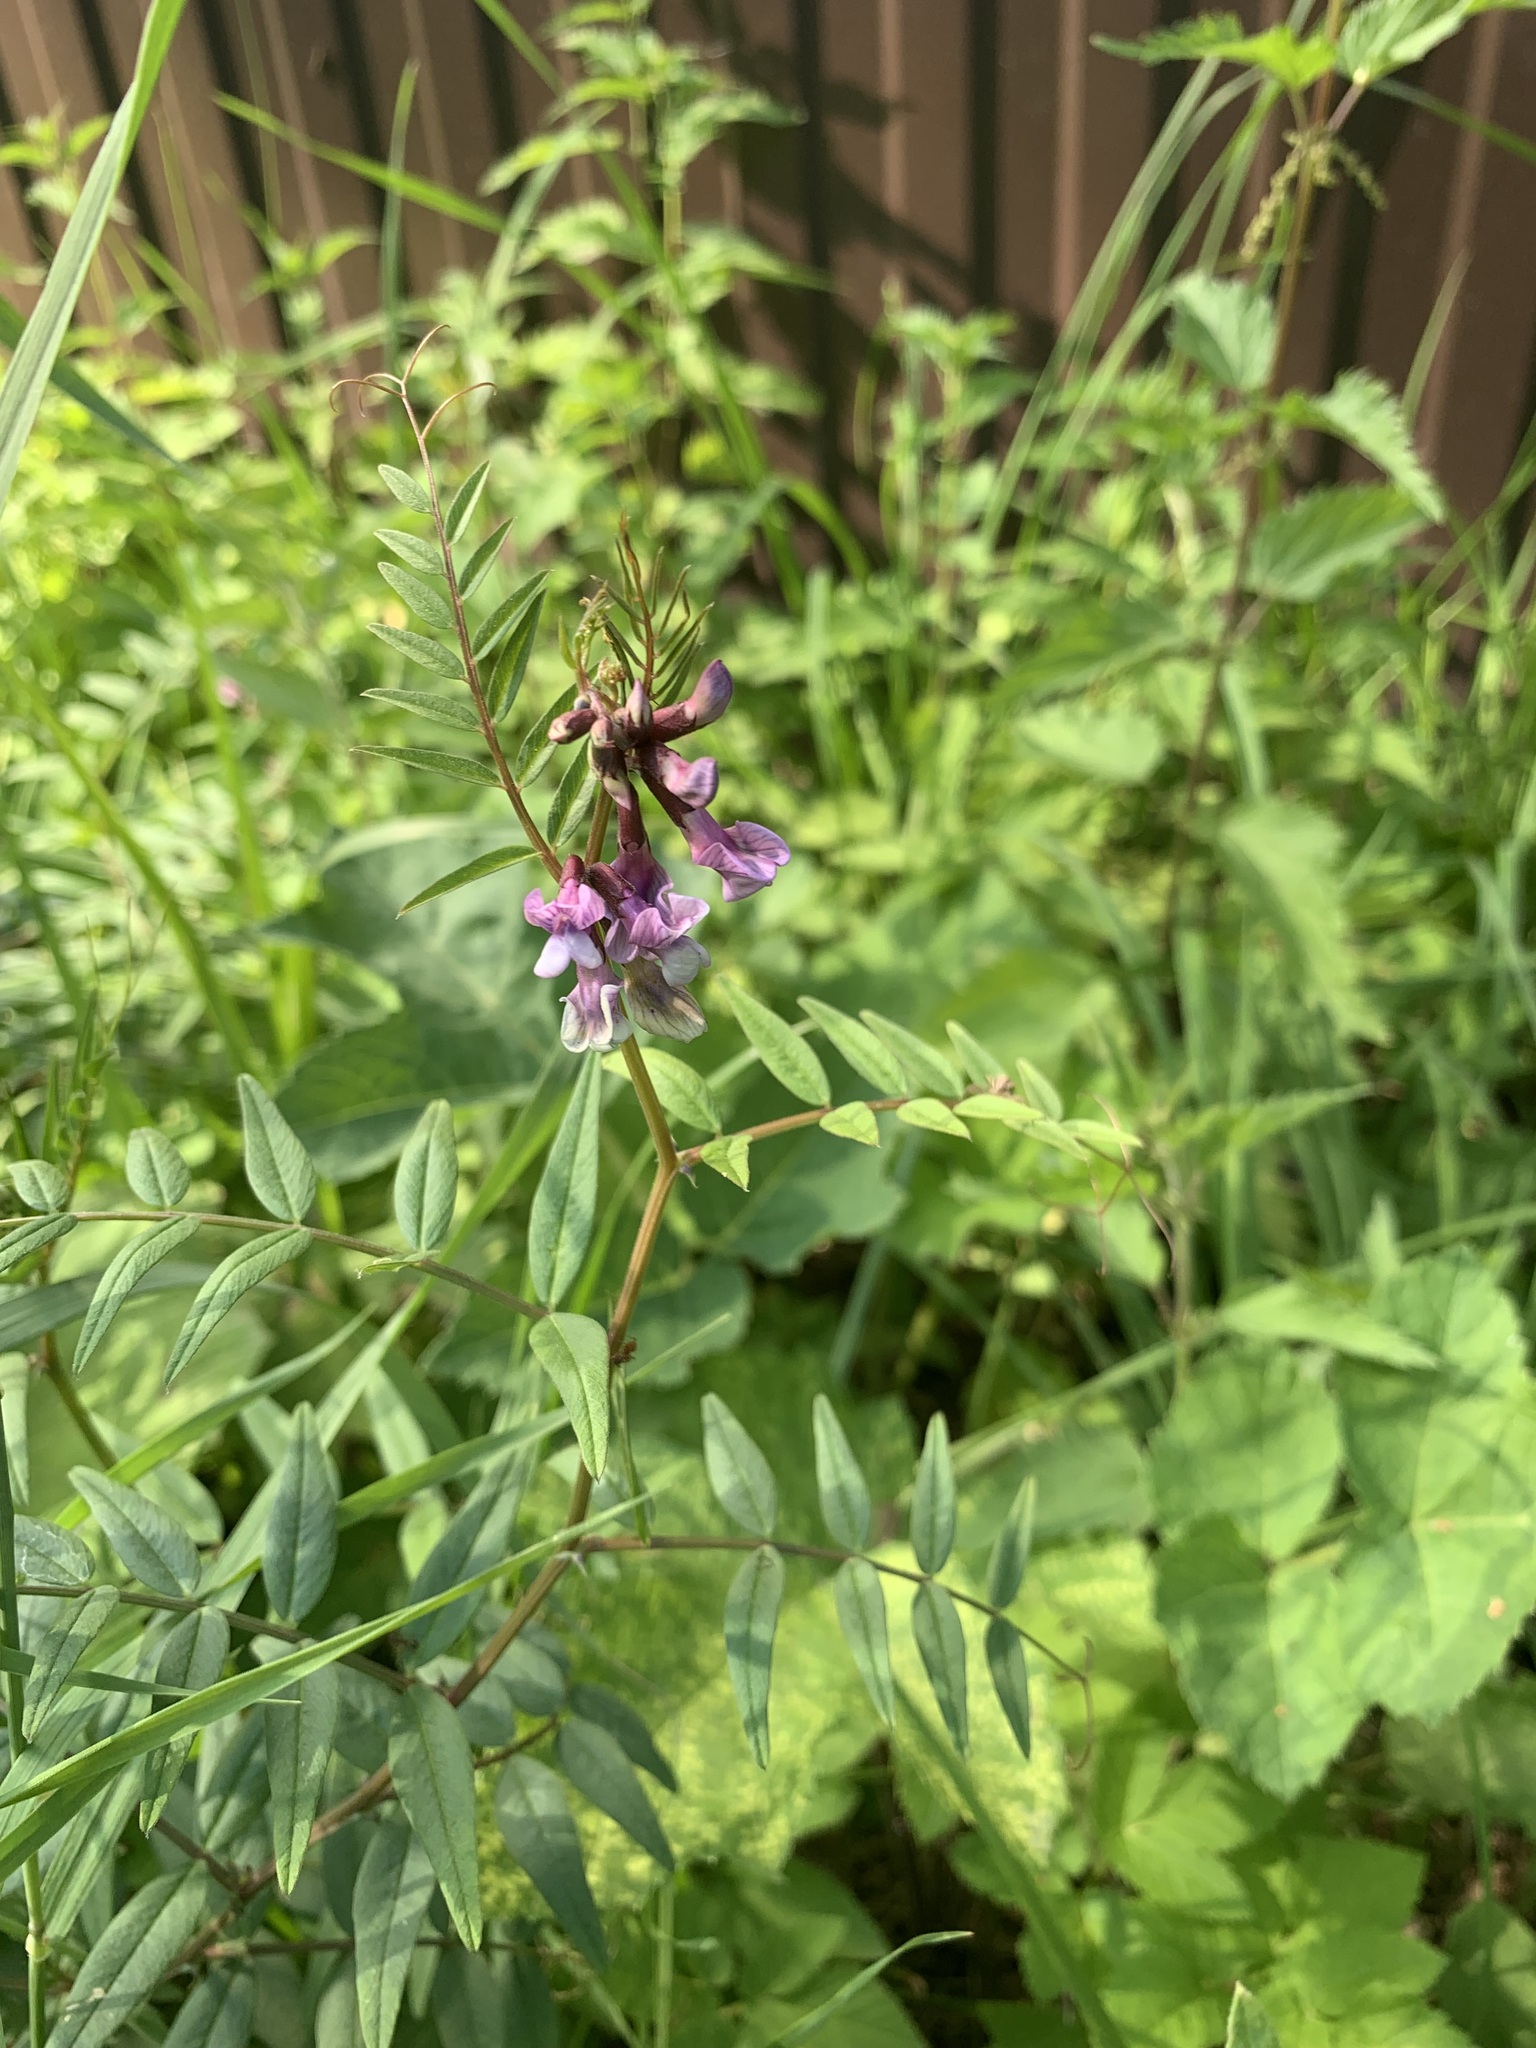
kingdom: Plantae
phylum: Tracheophyta
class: Magnoliopsida
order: Fabales
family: Fabaceae
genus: Vicia
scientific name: Vicia sepium
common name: Bush vetch
